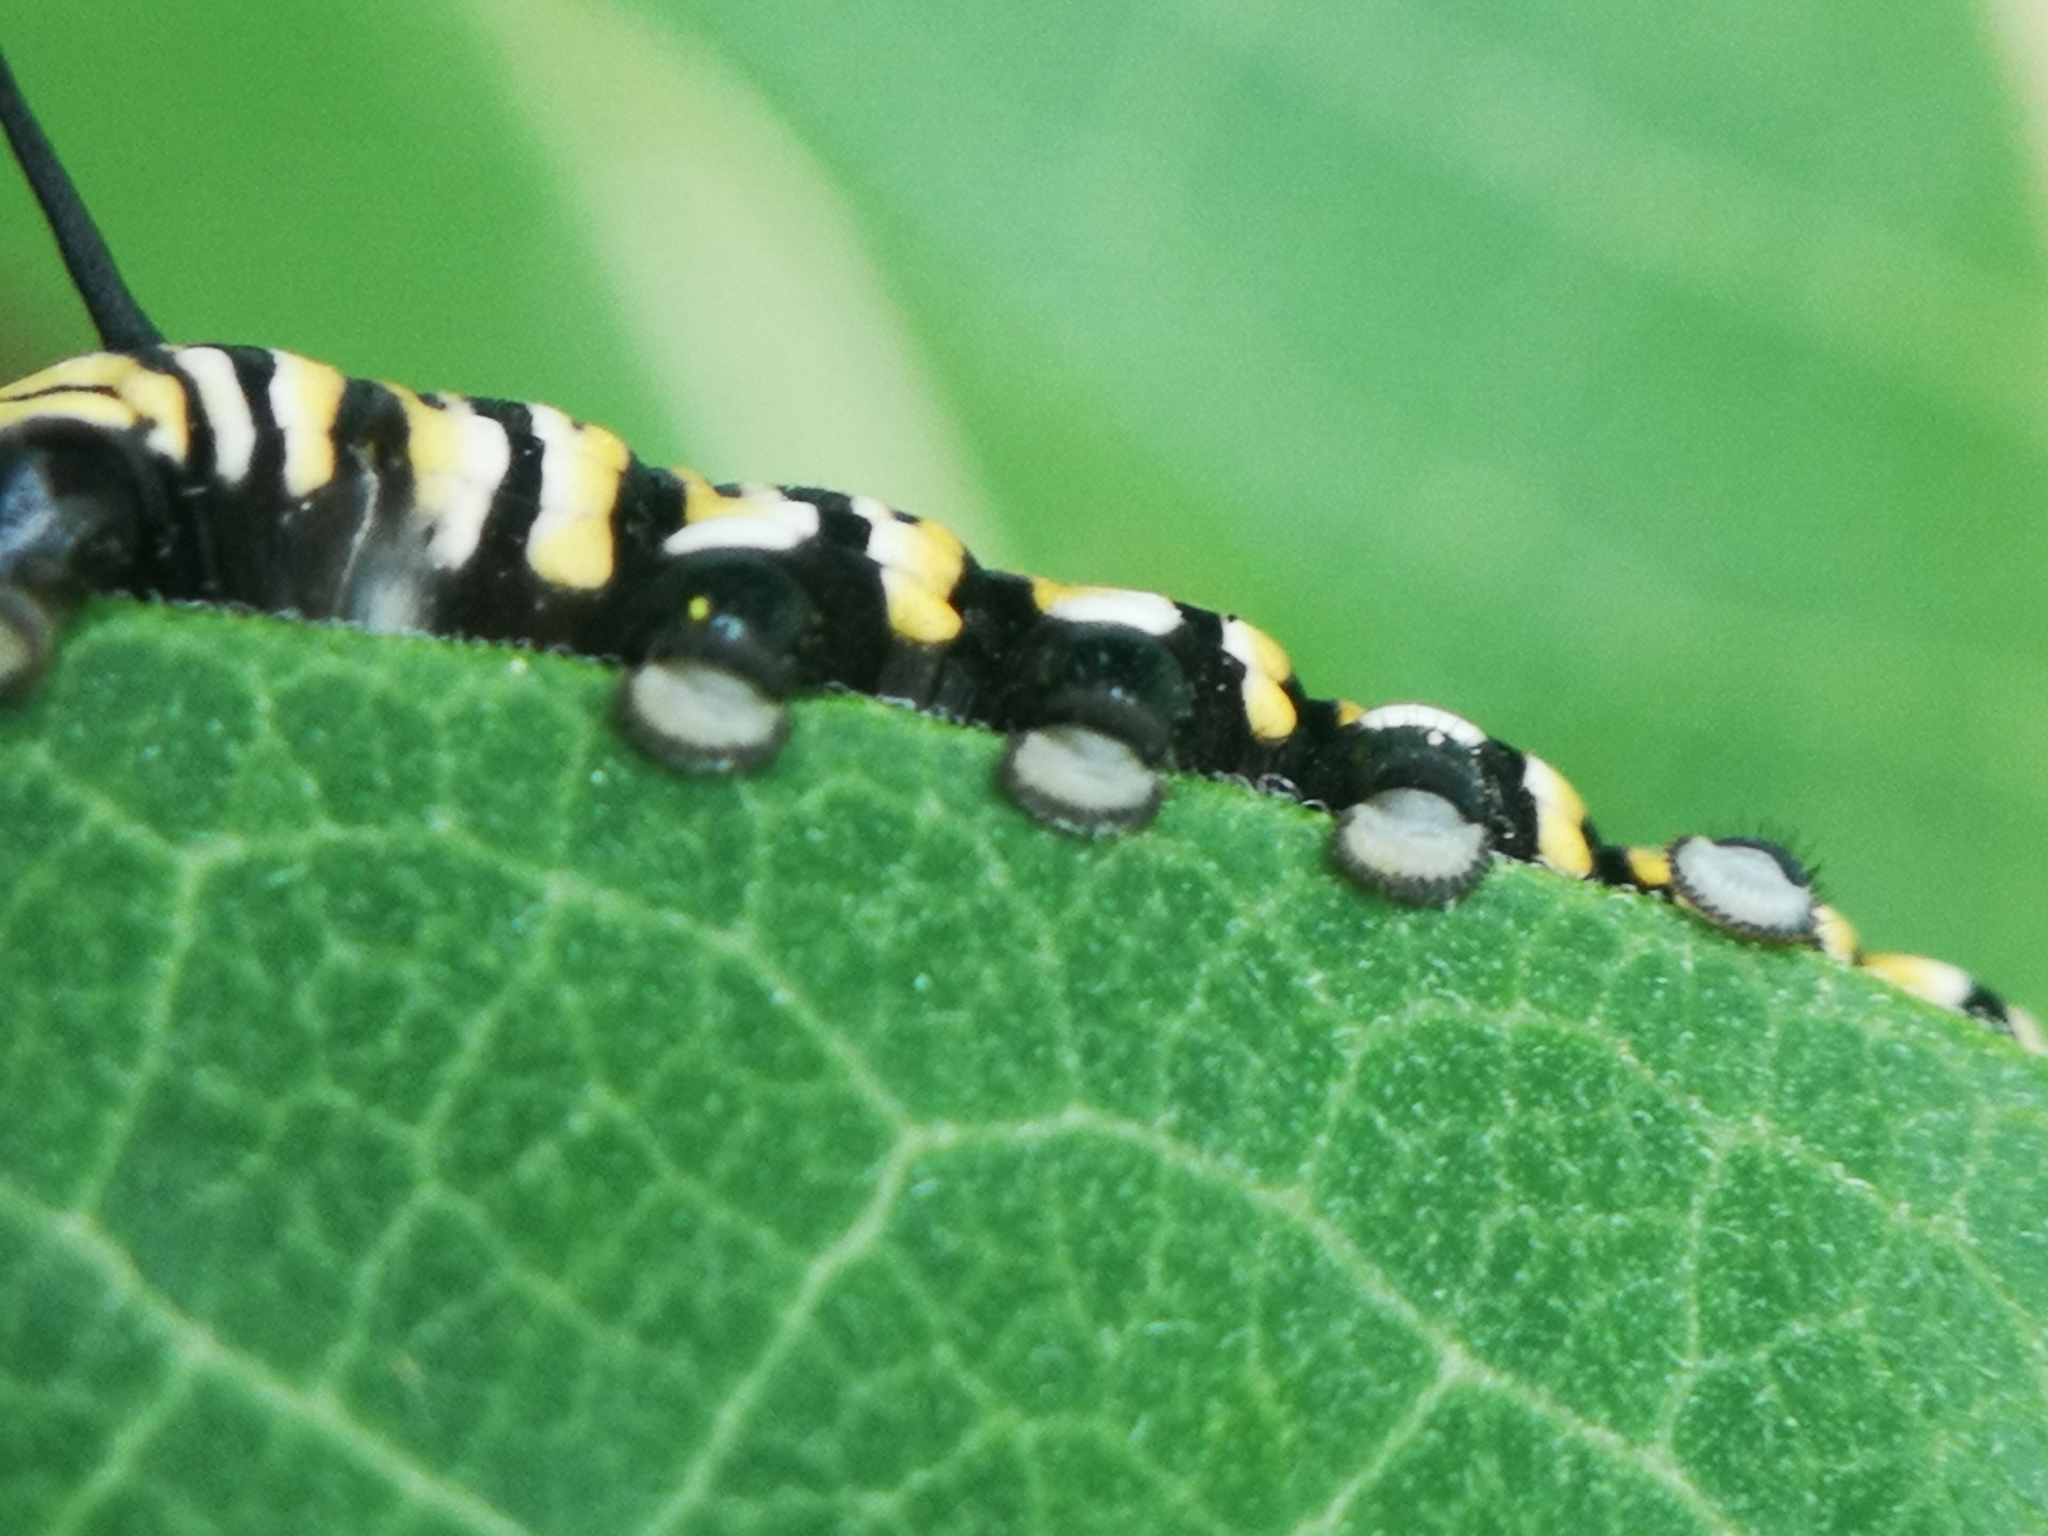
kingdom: Animalia
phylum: Arthropoda
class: Insecta
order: Lepidoptera
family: Nymphalidae
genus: Danaus
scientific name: Danaus plexippus
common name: Monarch
